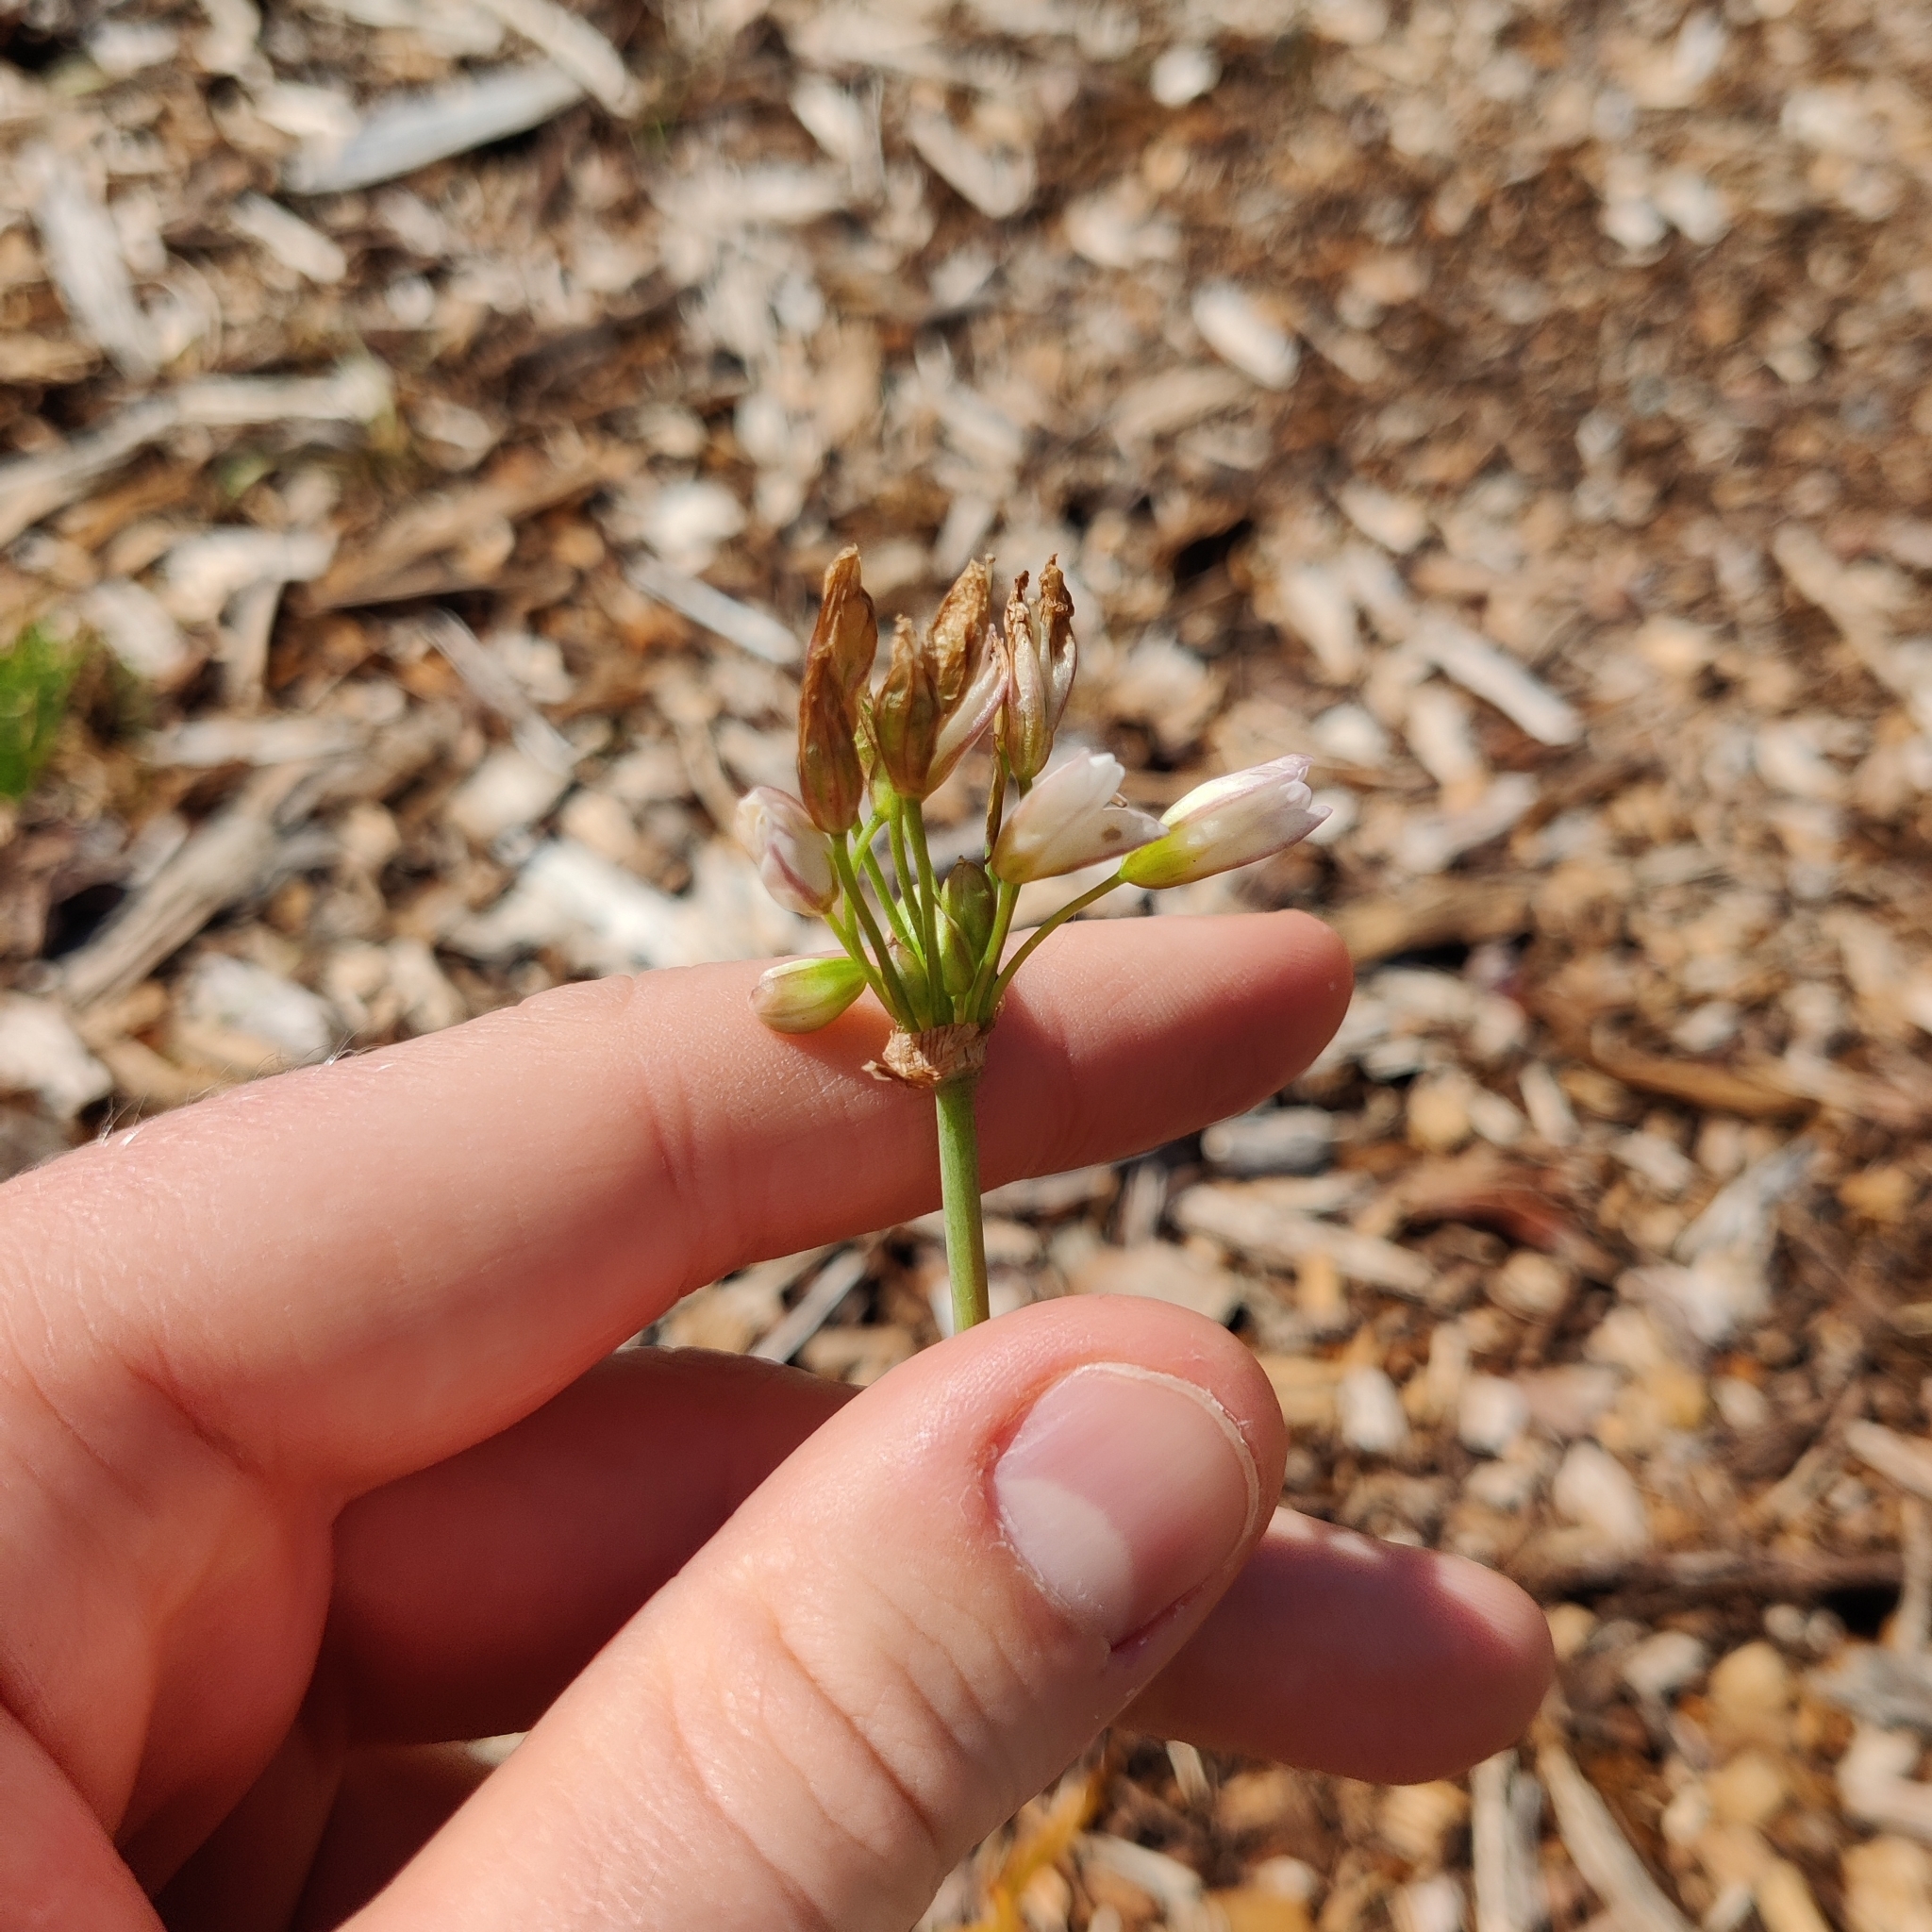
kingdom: Plantae
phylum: Tracheophyta
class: Liliopsida
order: Asparagales
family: Amaryllidaceae
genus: Nothoscordum
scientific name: Nothoscordum gracile
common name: Slender false garlic
